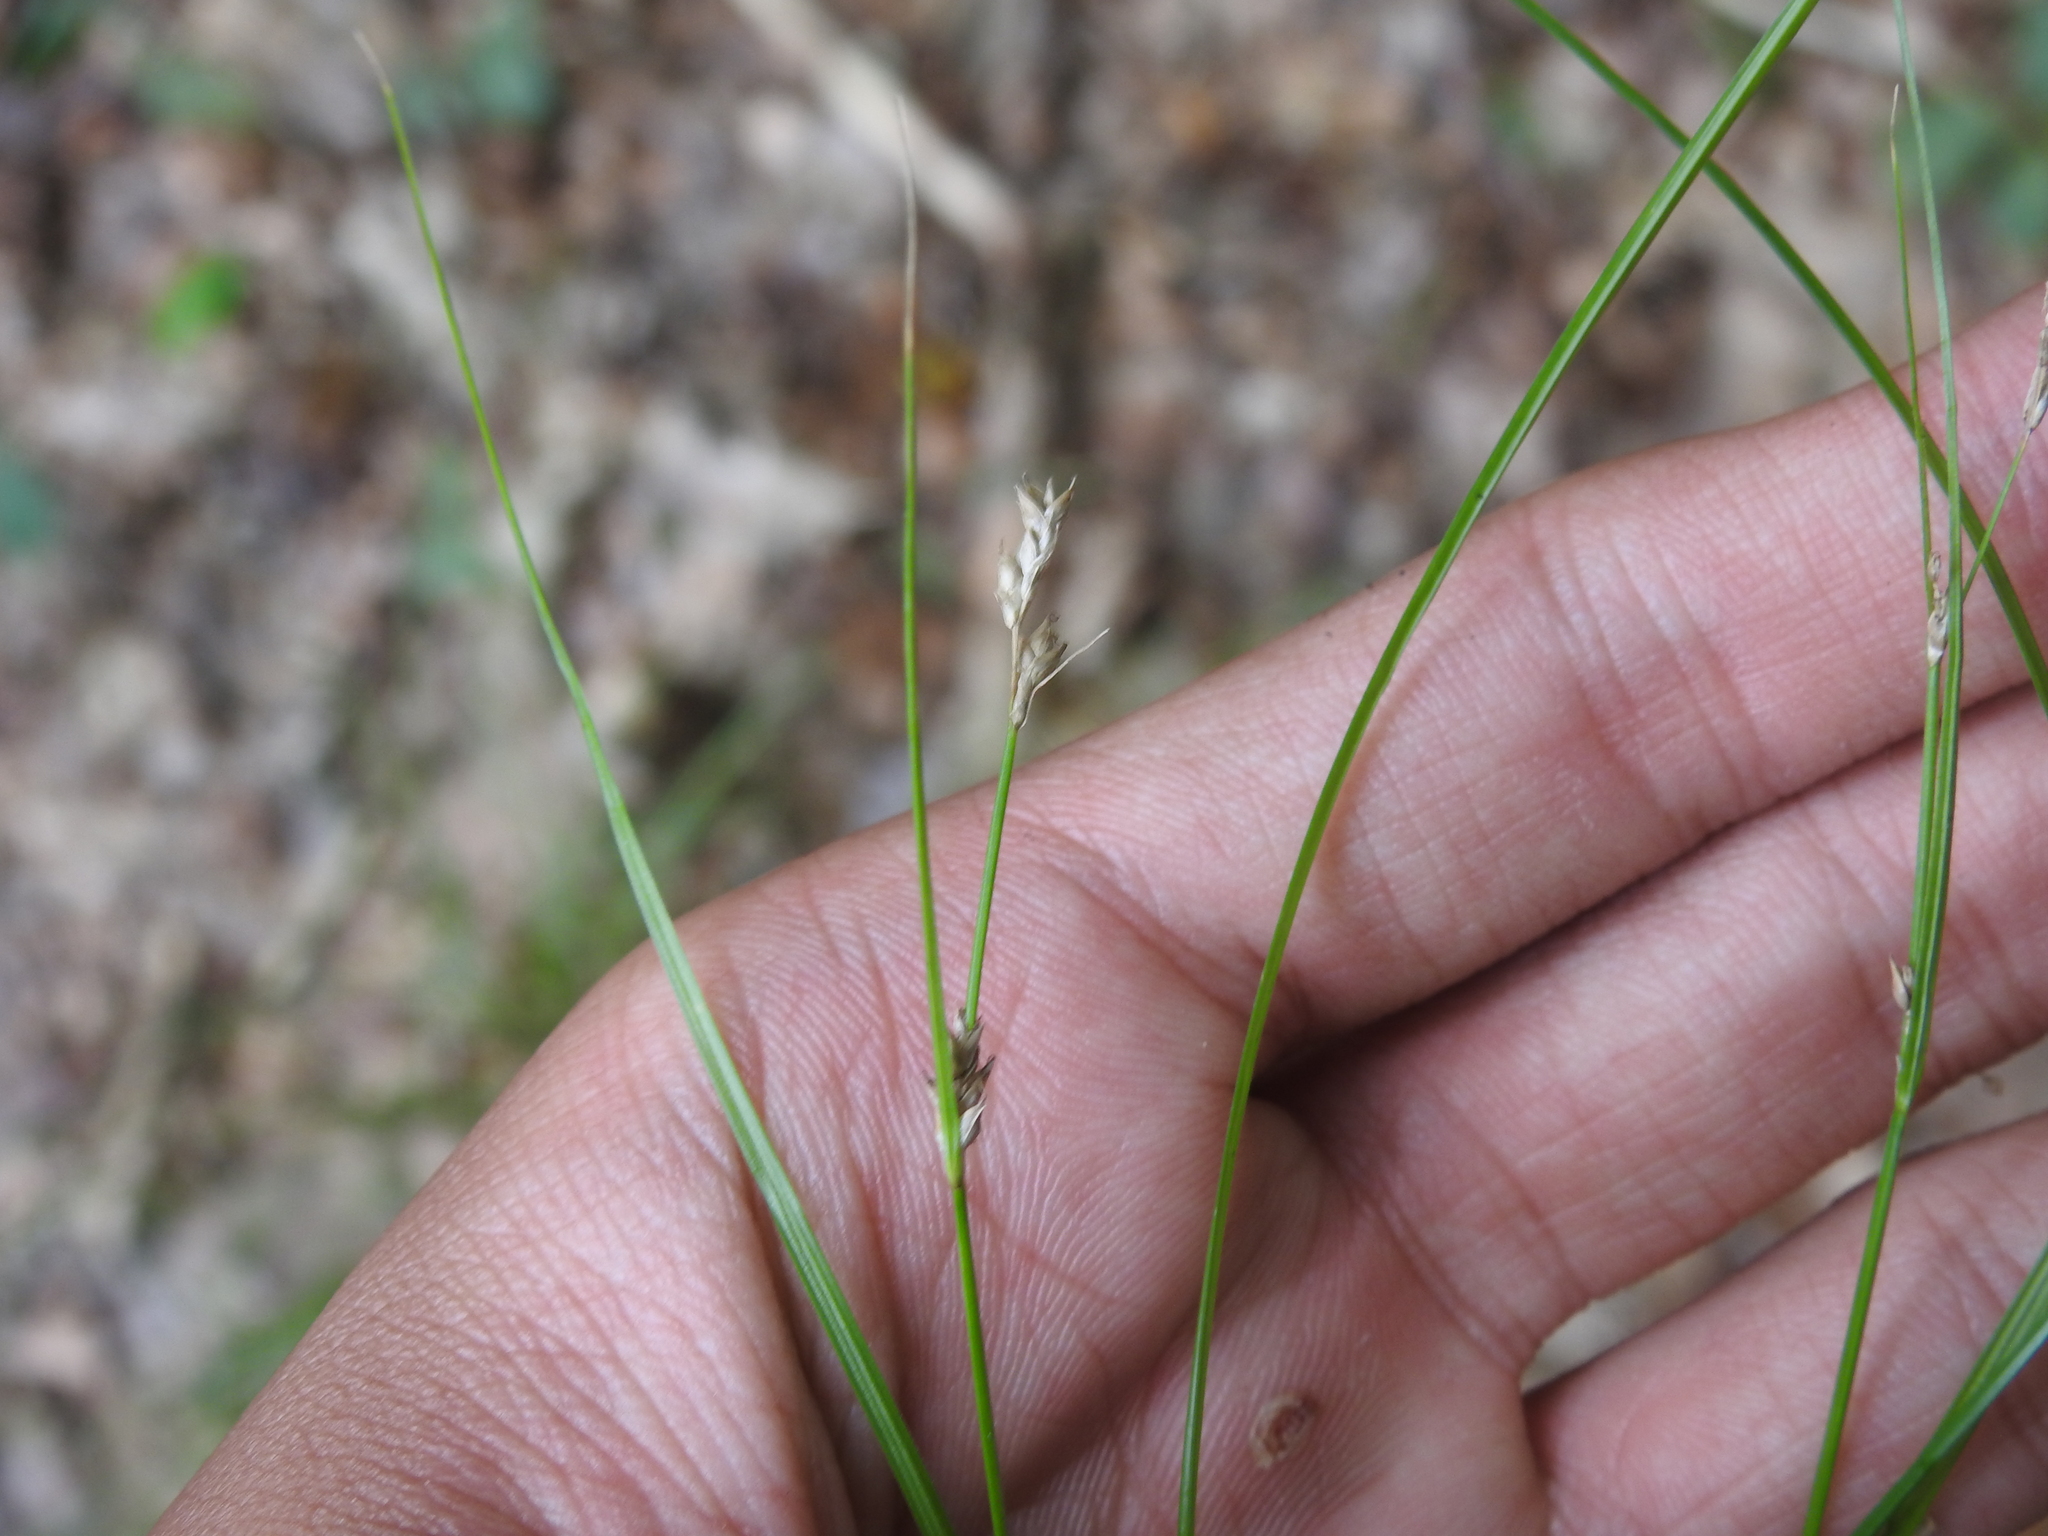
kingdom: Plantae
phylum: Tracheophyta
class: Liliopsida
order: Poales
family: Cyperaceae
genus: Carex
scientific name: Carex remota
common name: Remote sedge
